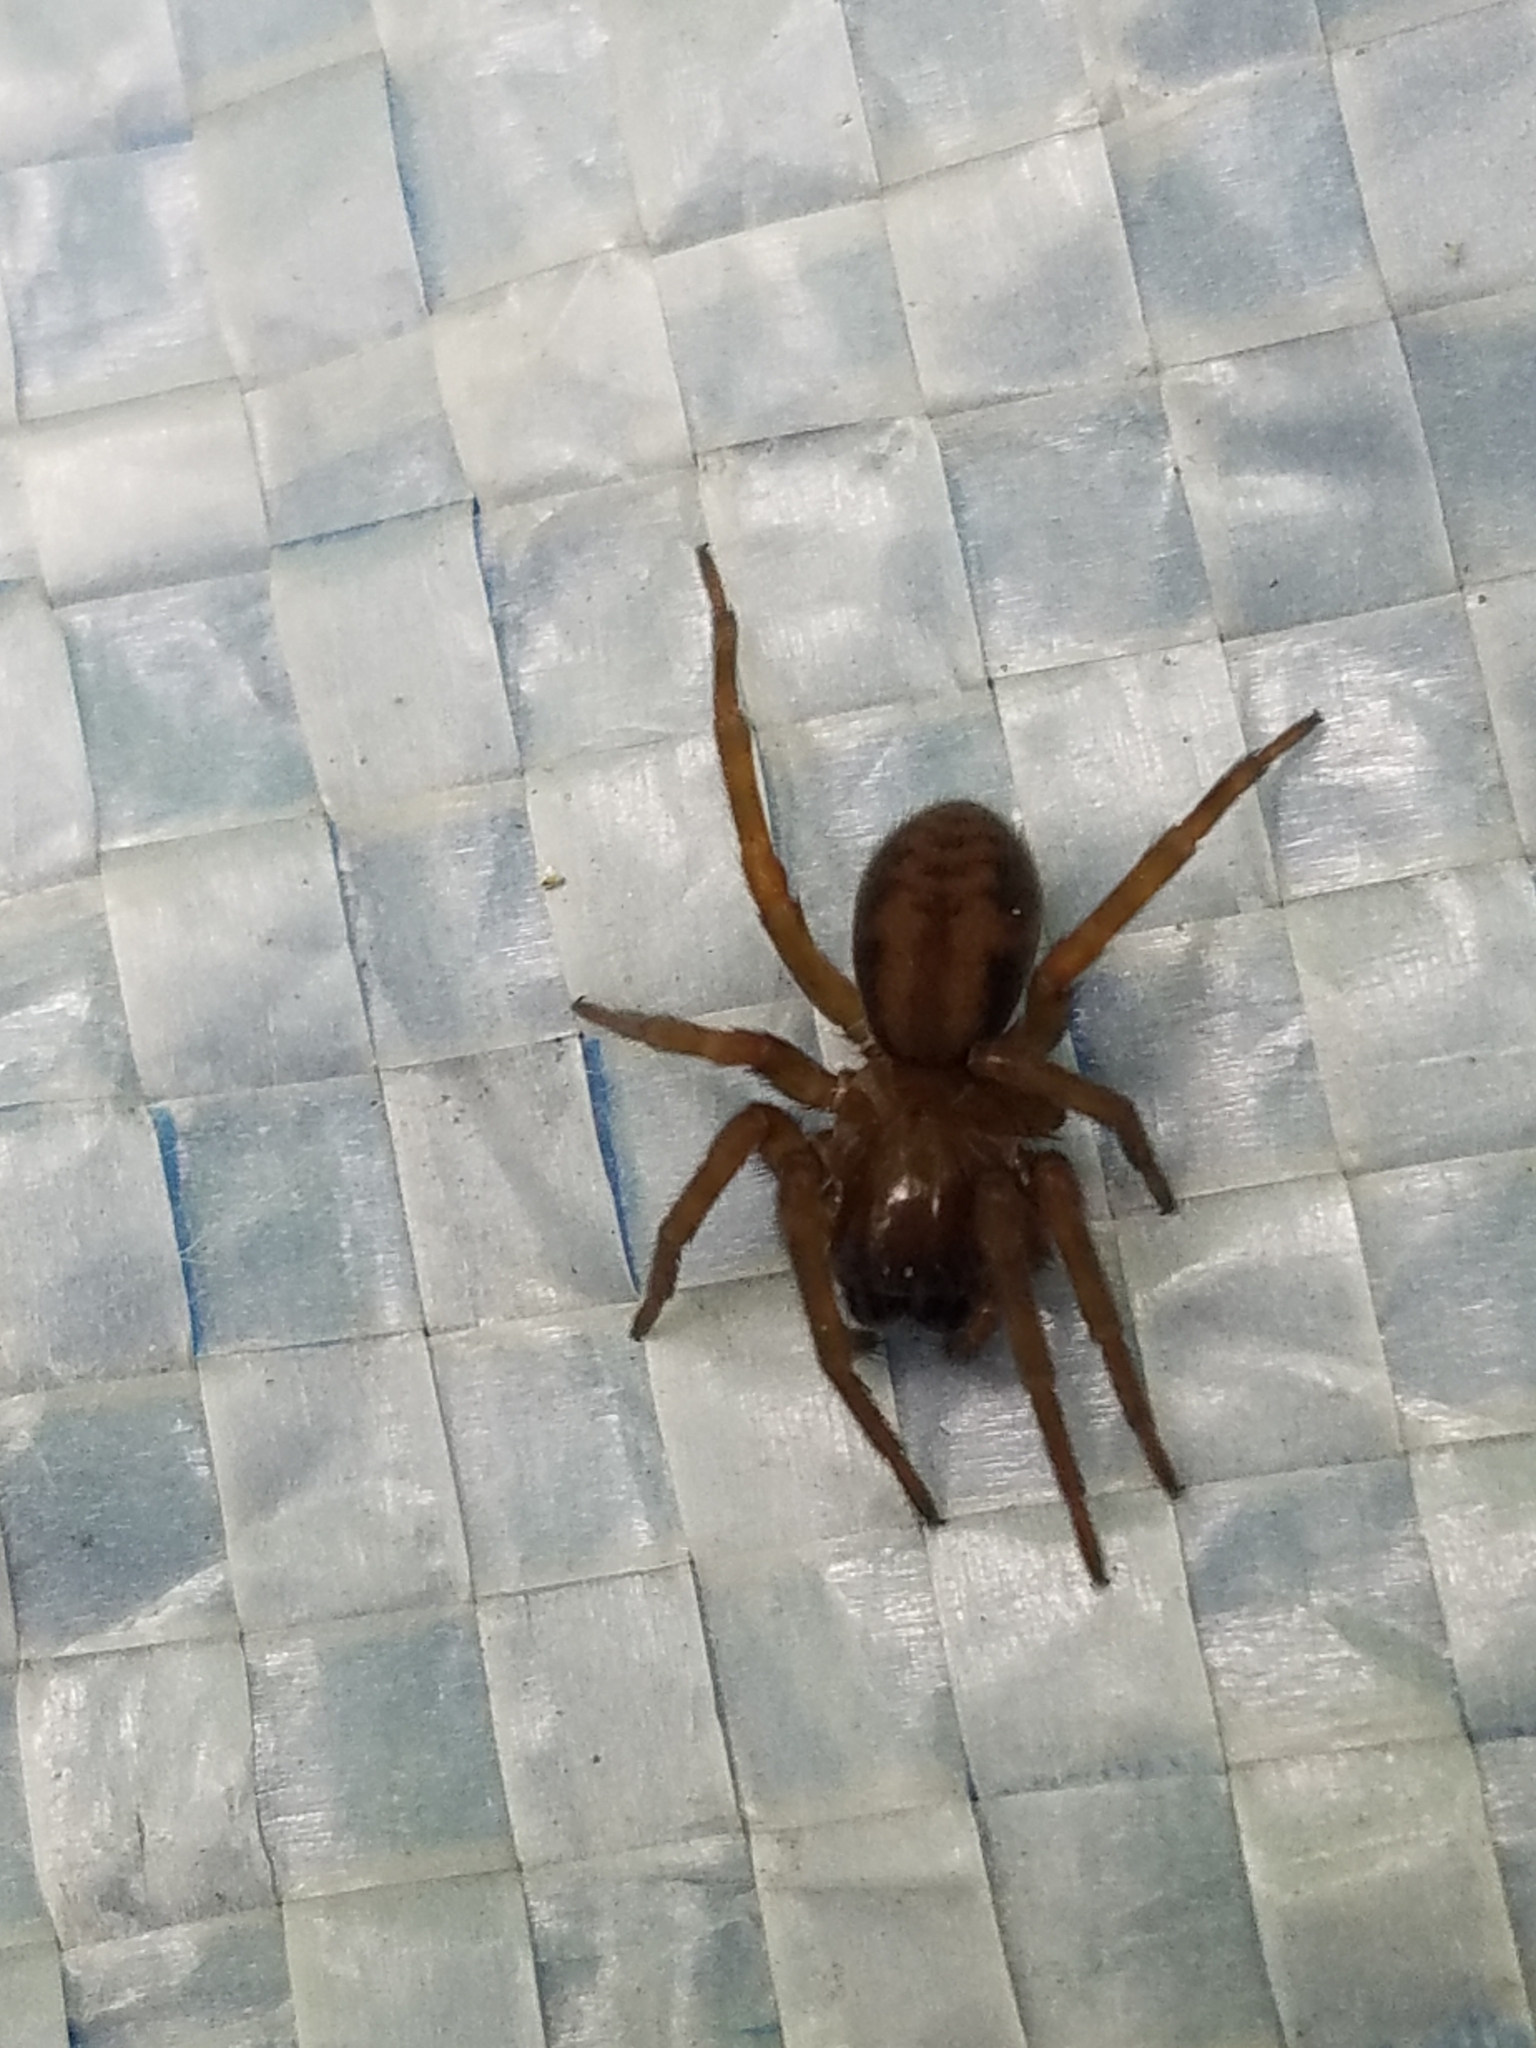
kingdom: Animalia
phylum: Arthropoda
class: Arachnida
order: Araneae
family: Amaurobiidae
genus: Callobius
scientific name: Callobius bennetti
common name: Bennett's laceweaver
